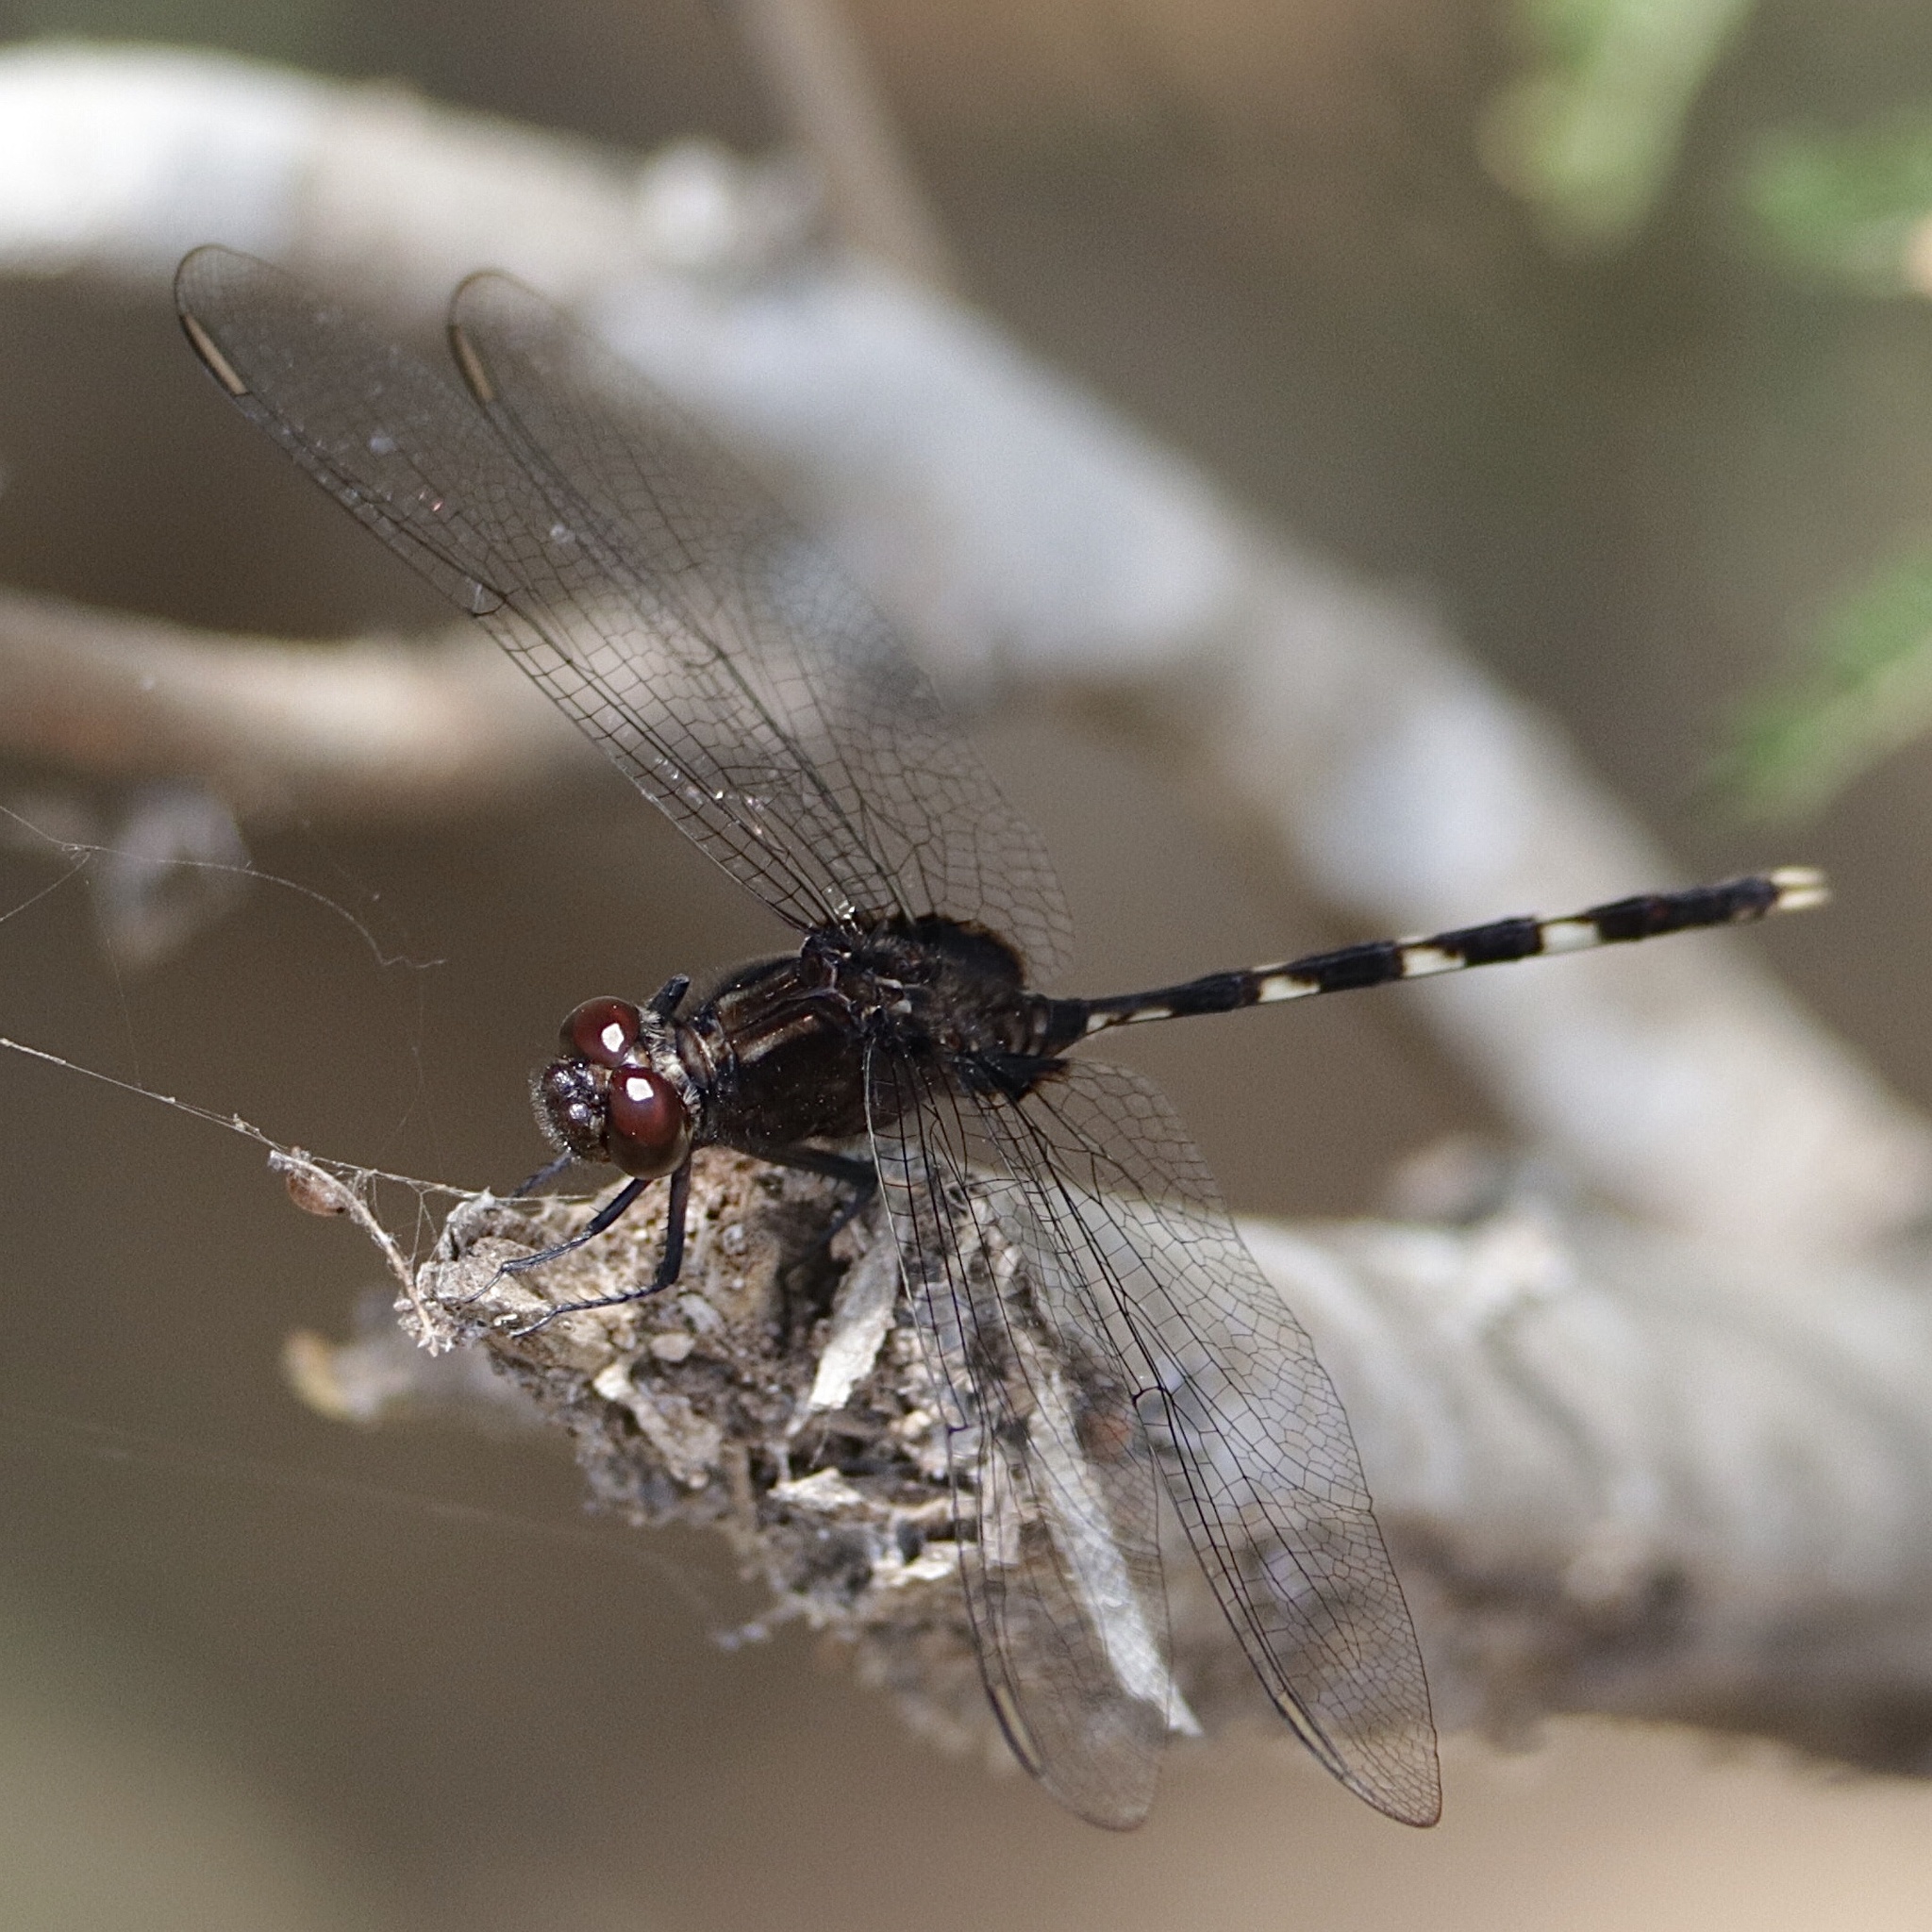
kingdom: Animalia
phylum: Arthropoda
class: Insecta
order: Odonata
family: Libellulidae
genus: Erythemis
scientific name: Erythemis plebeja
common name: Pin-tailed pondhawk
